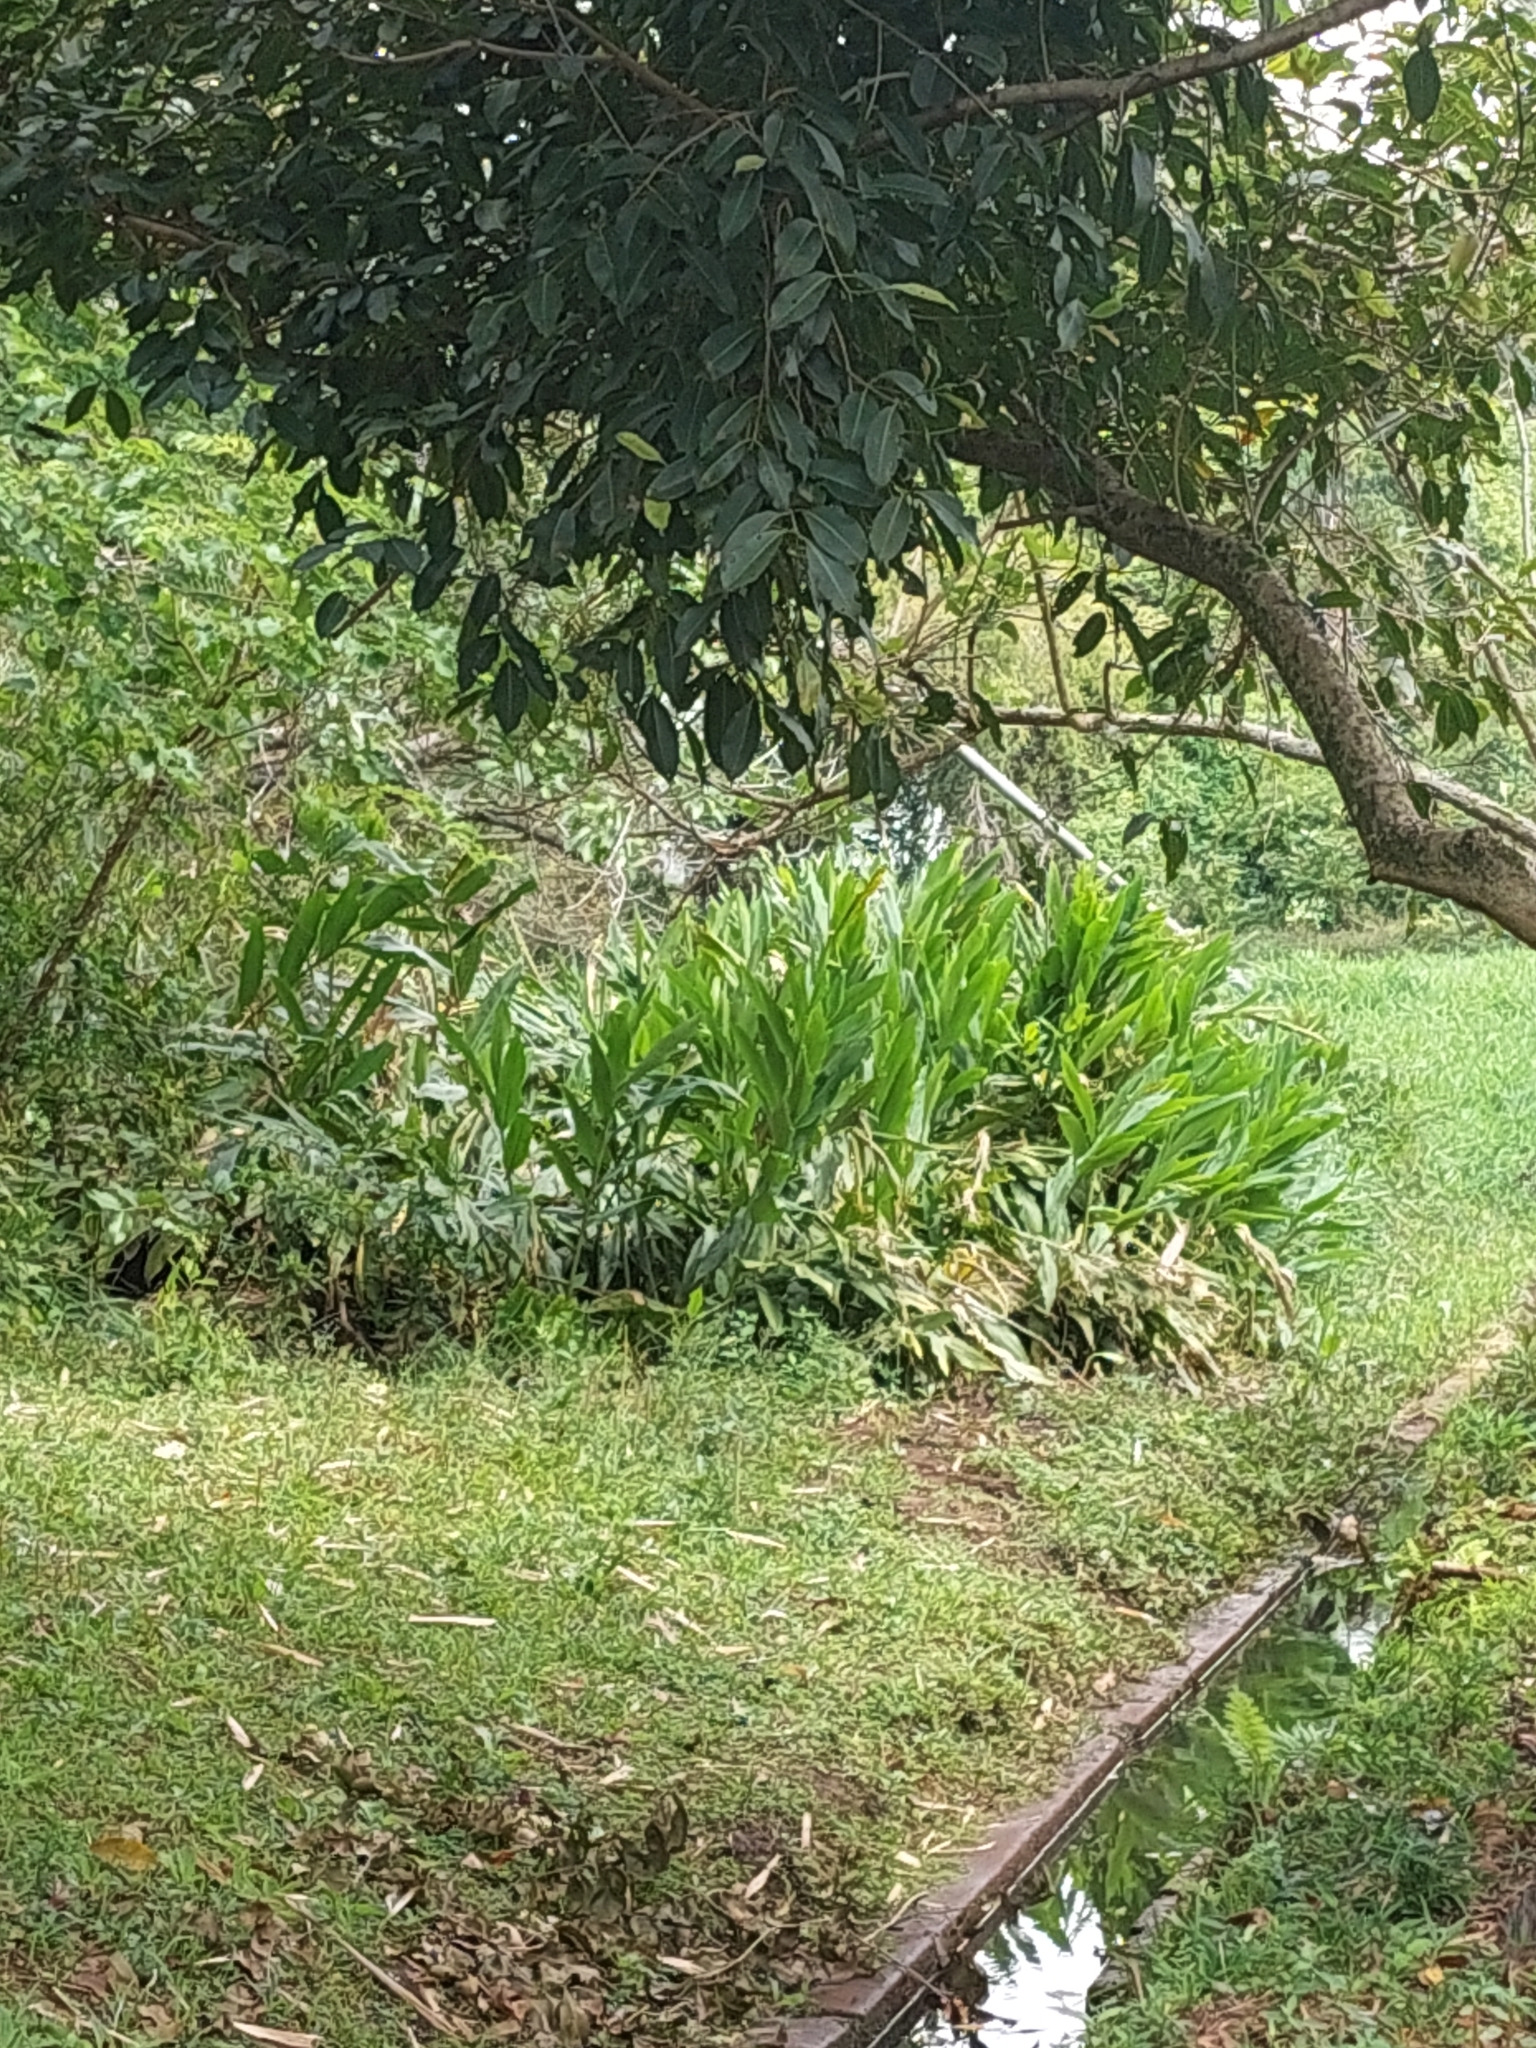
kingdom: Plantae
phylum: Tracheophyta
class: Liliopsida
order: Zingiberales
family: Zingiberaceae
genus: Hedychium
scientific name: Hedychium coronarium
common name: White garland-lily
